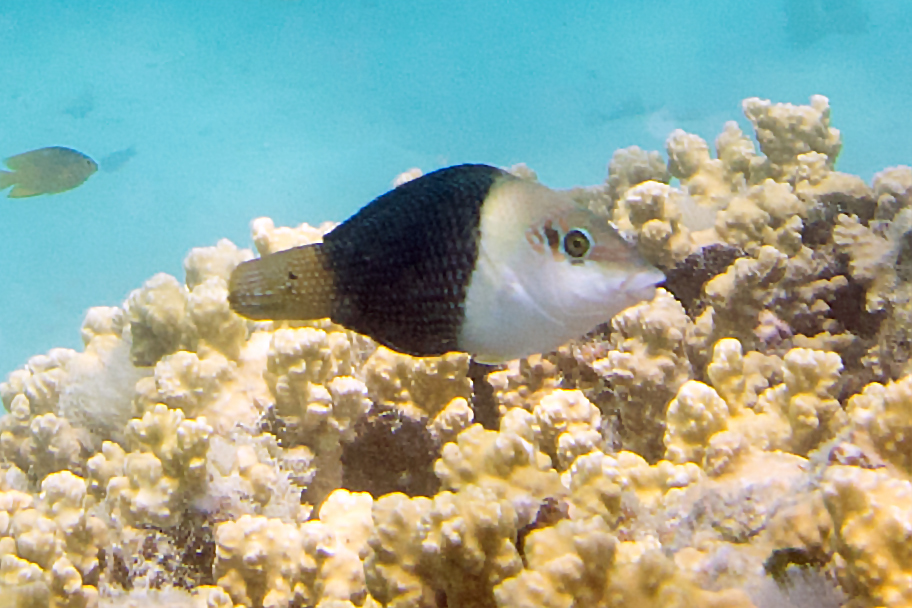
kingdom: Animalia
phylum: Chordata
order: Perciformes
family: Labridae
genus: Hemigymnus
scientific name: Hemigymnus melapterus
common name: Blackeye thicklip
